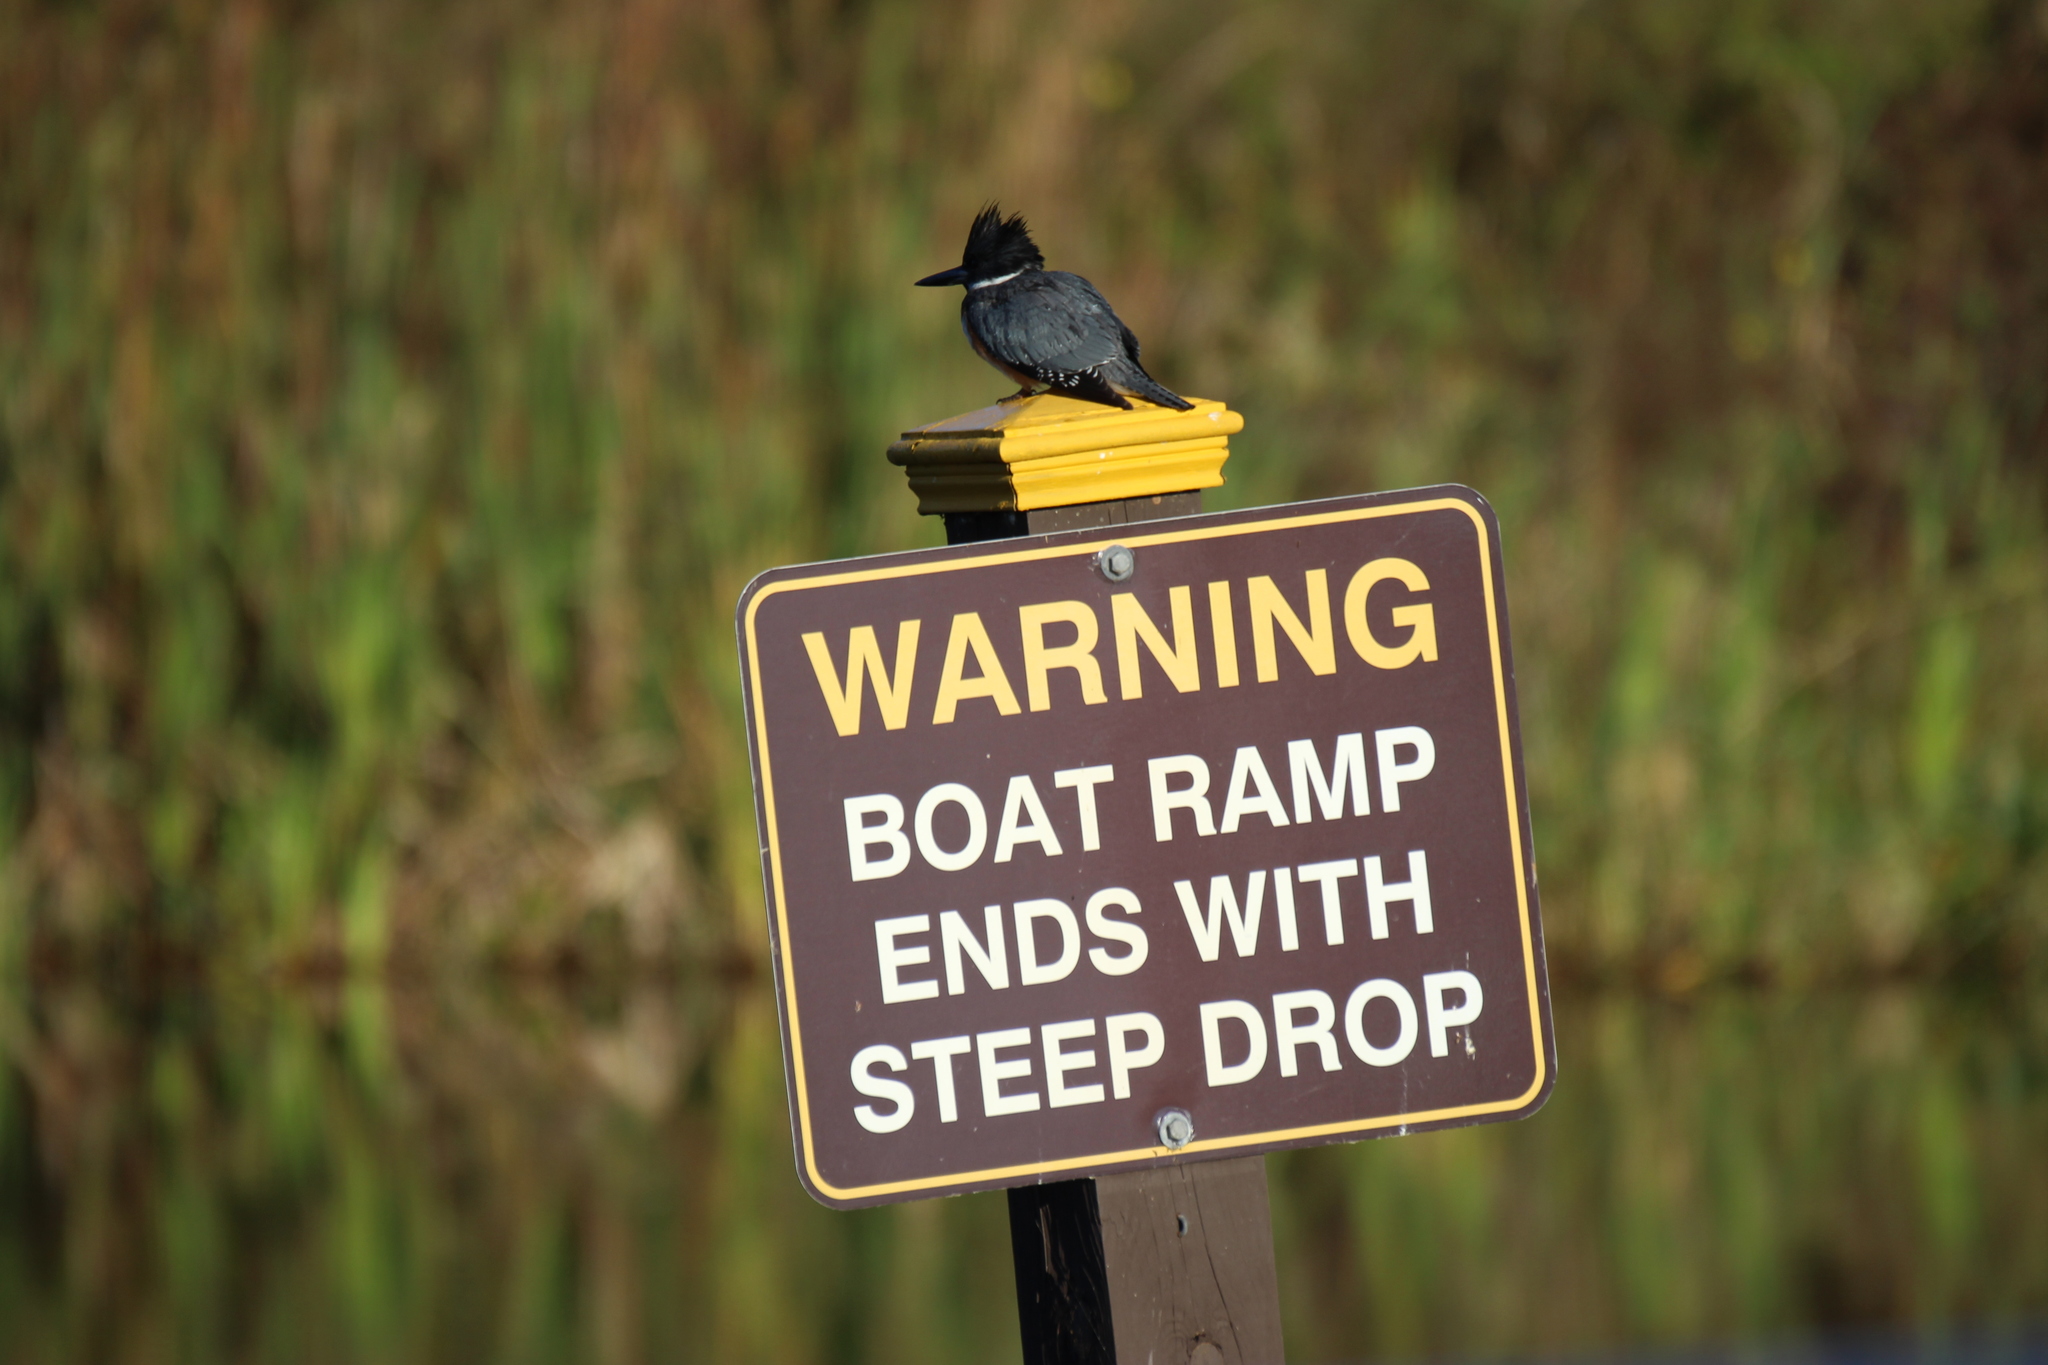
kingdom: Animalia
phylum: Chordata
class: Aves
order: Coraciiformes
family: Alcedinidae
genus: Megaceryle
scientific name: Megaceryle alcyon
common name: Belted kingfisher
